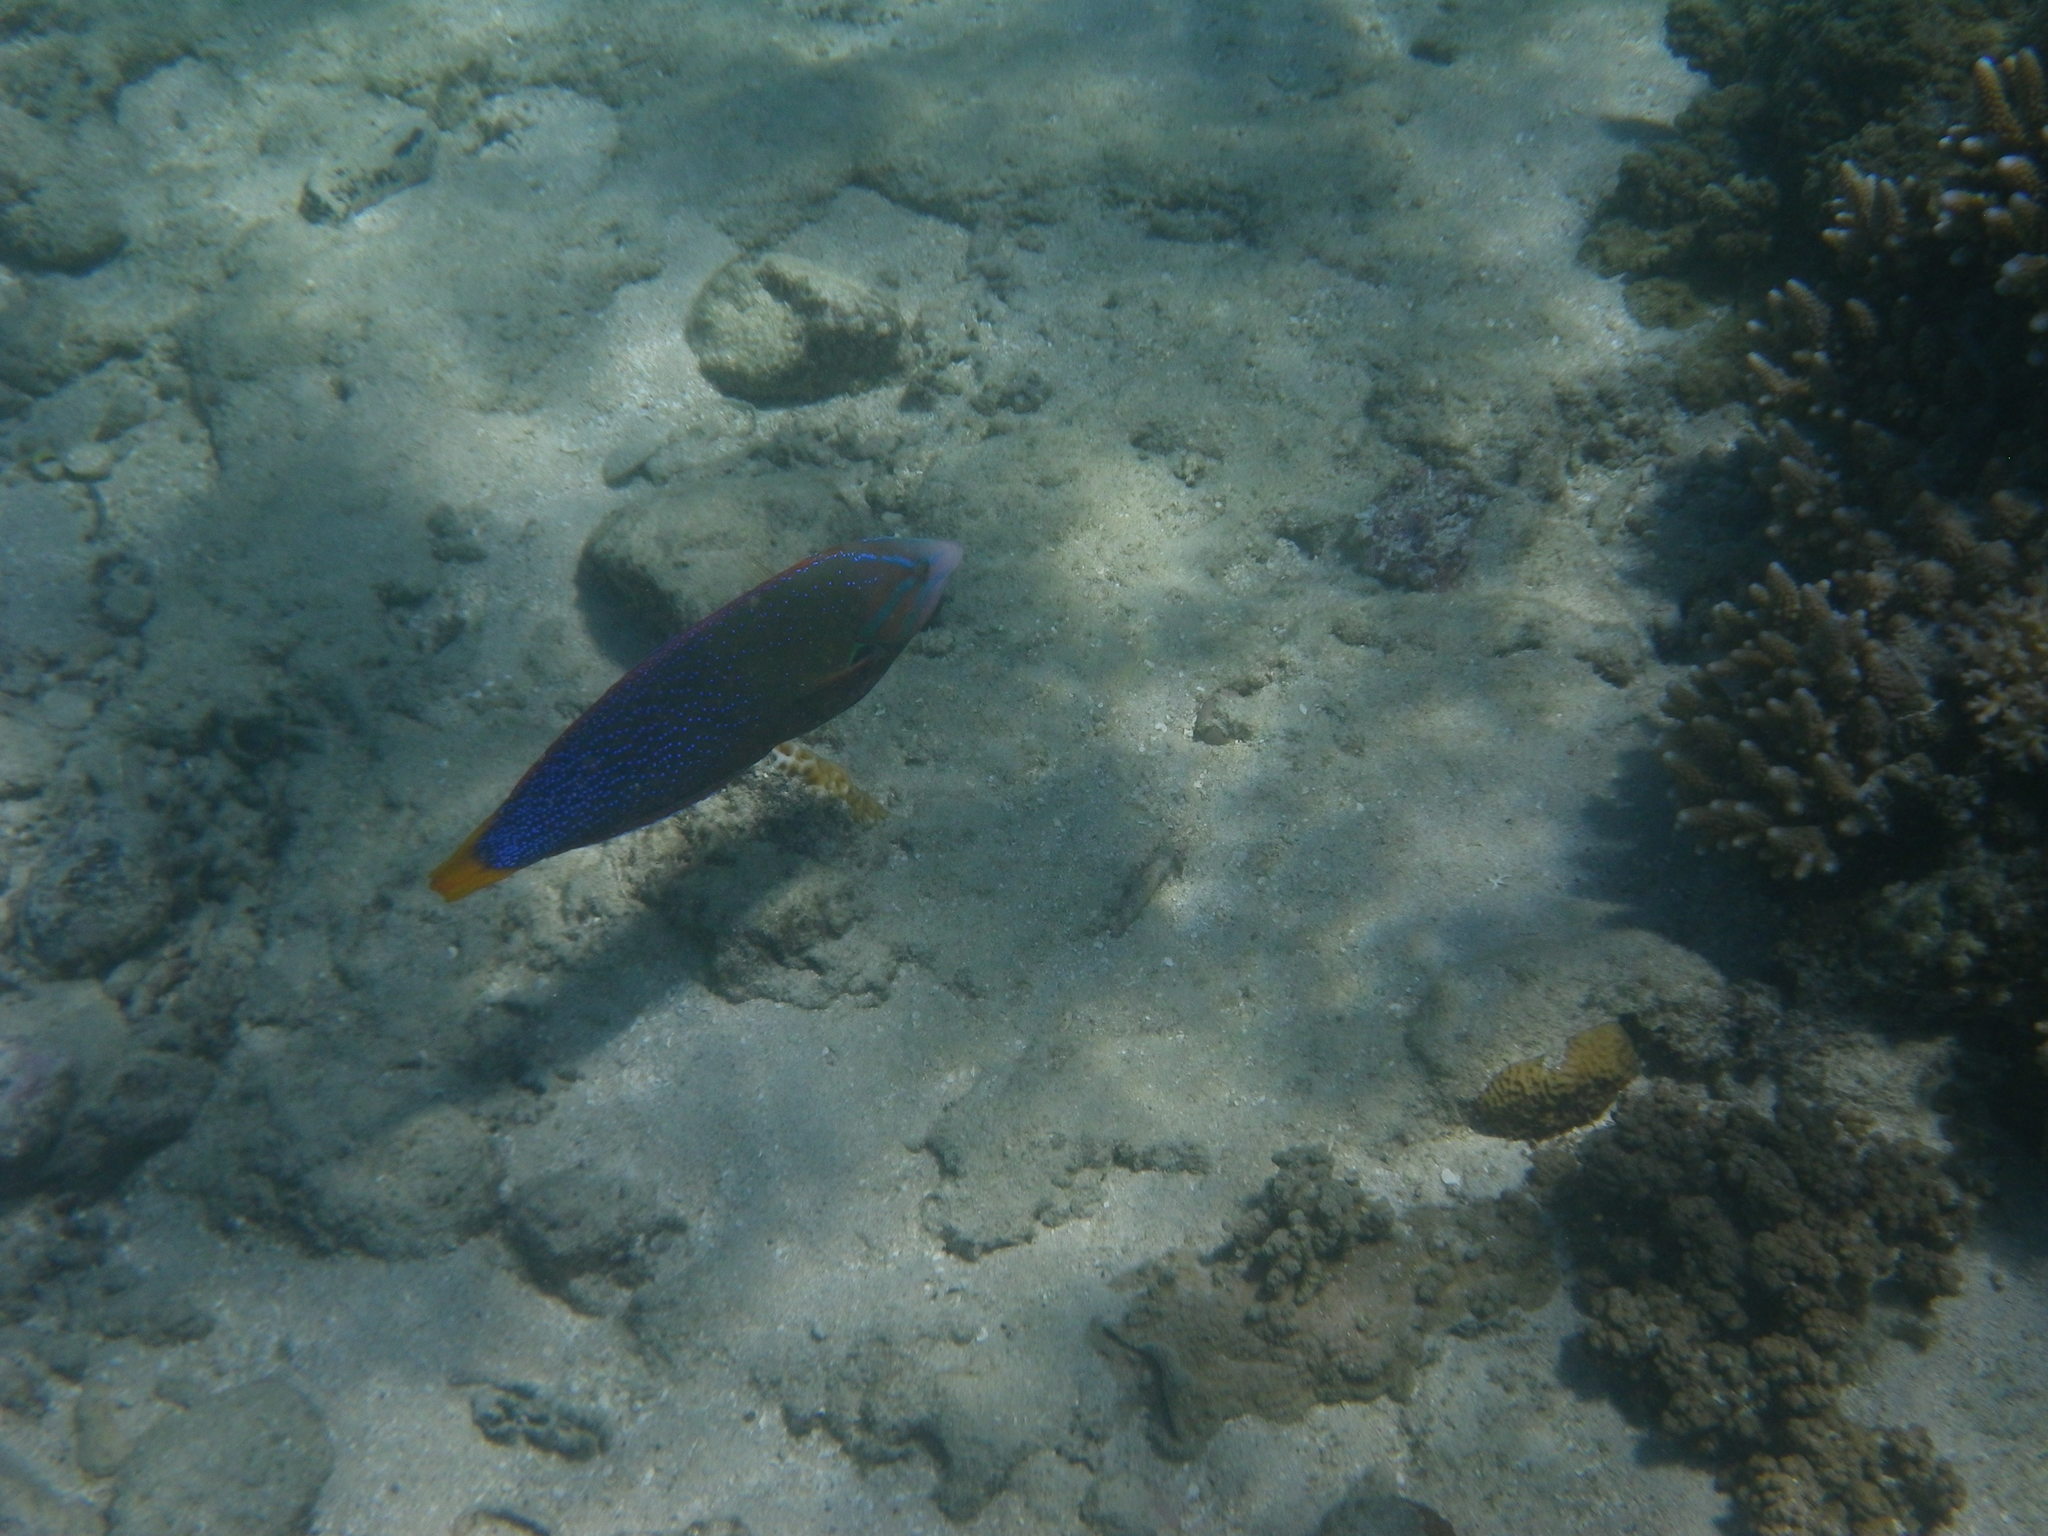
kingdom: Animalia
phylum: Chordata
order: Perciformes
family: Labridae
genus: Coris
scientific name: Coris gaimard
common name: Yellowtail coris
